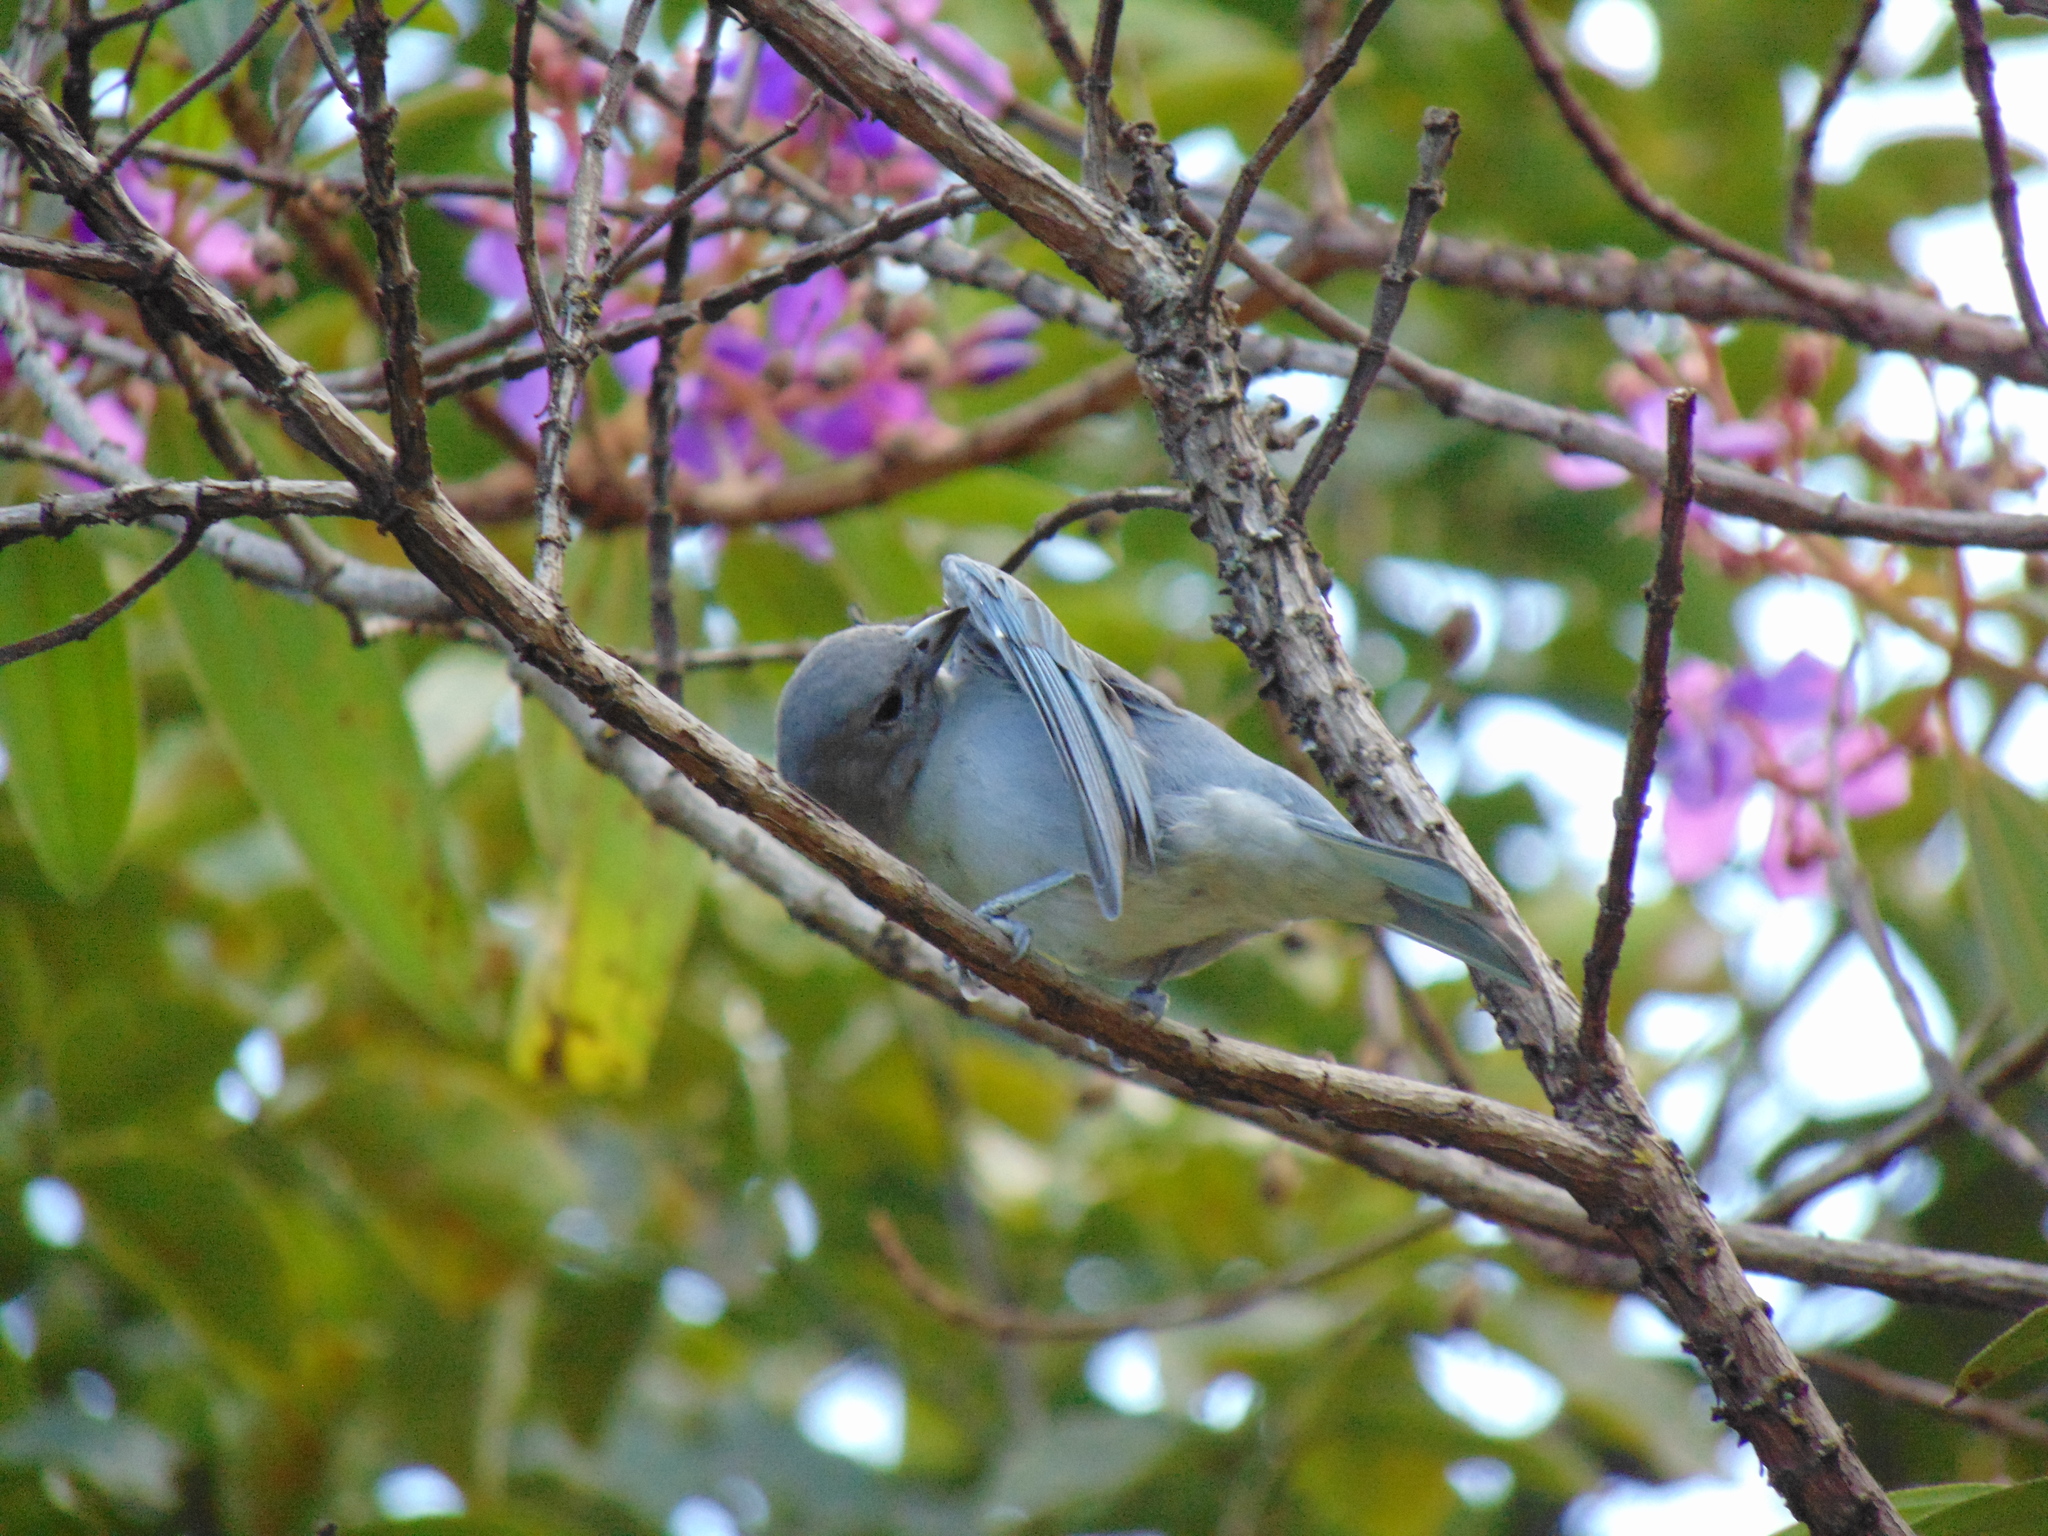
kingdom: Animalia
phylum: Chordata
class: Aves
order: Passeriformes
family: Thraupidae
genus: Thraupis
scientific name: Thraupis sayaca
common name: Sayaca tanager
